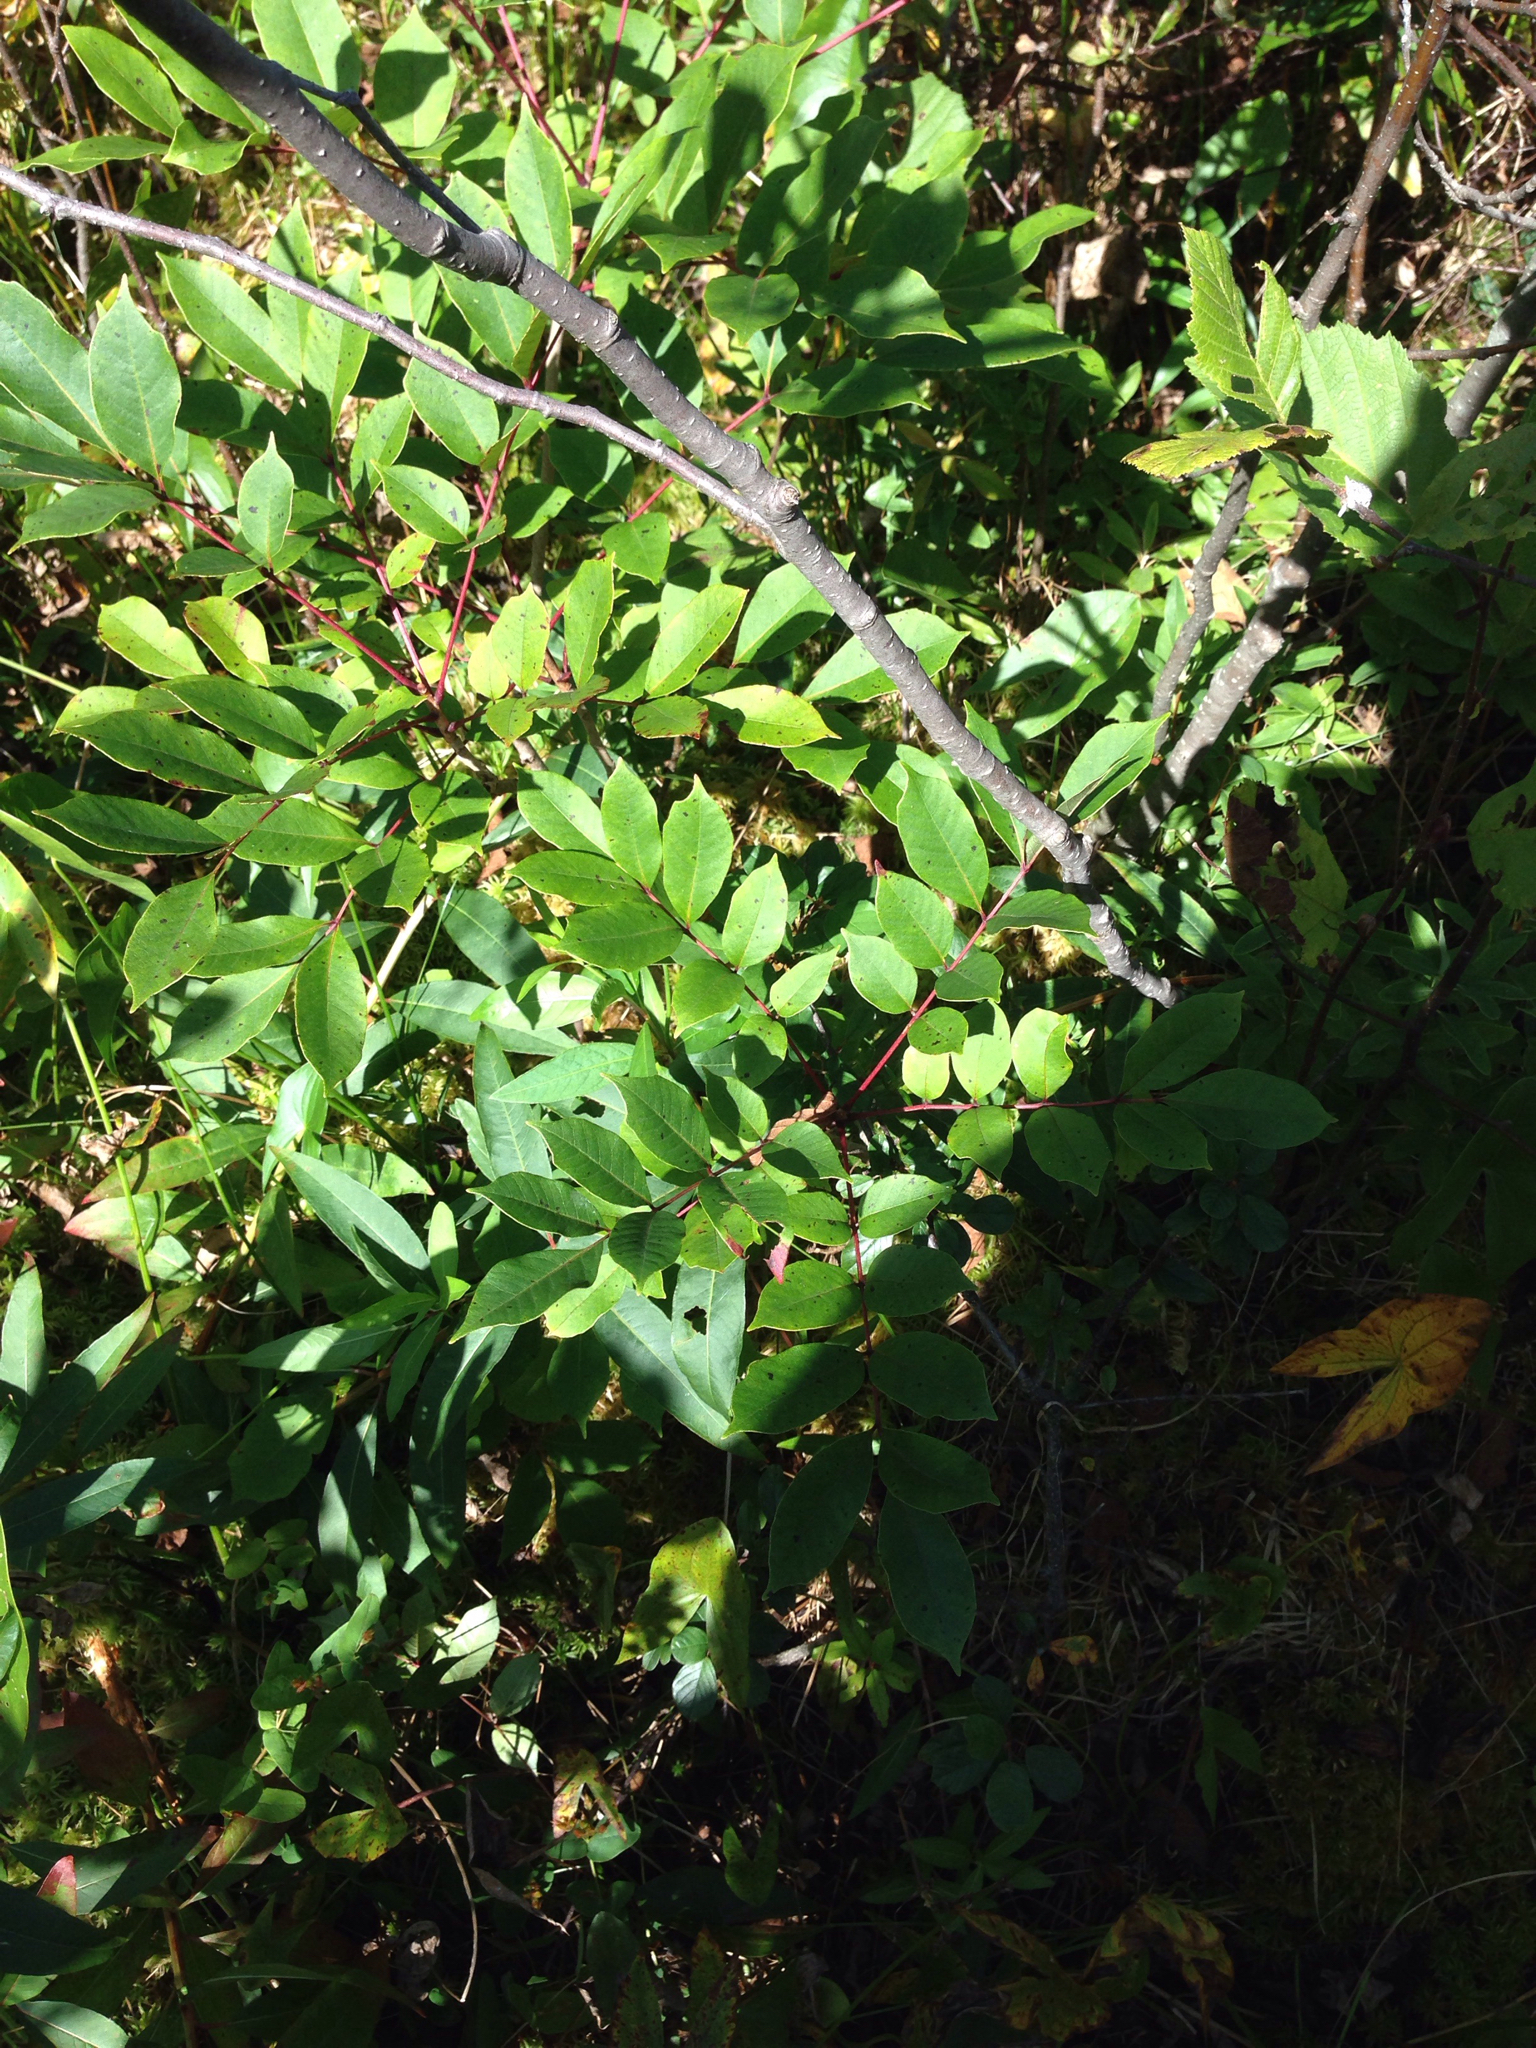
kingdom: Plantae
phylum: Tracheophyta
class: Magnoliopsida
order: Sapindales
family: Anacardiaceae
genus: Toxicodendron
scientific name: Toxicodendron vernix
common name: Poison sumac
